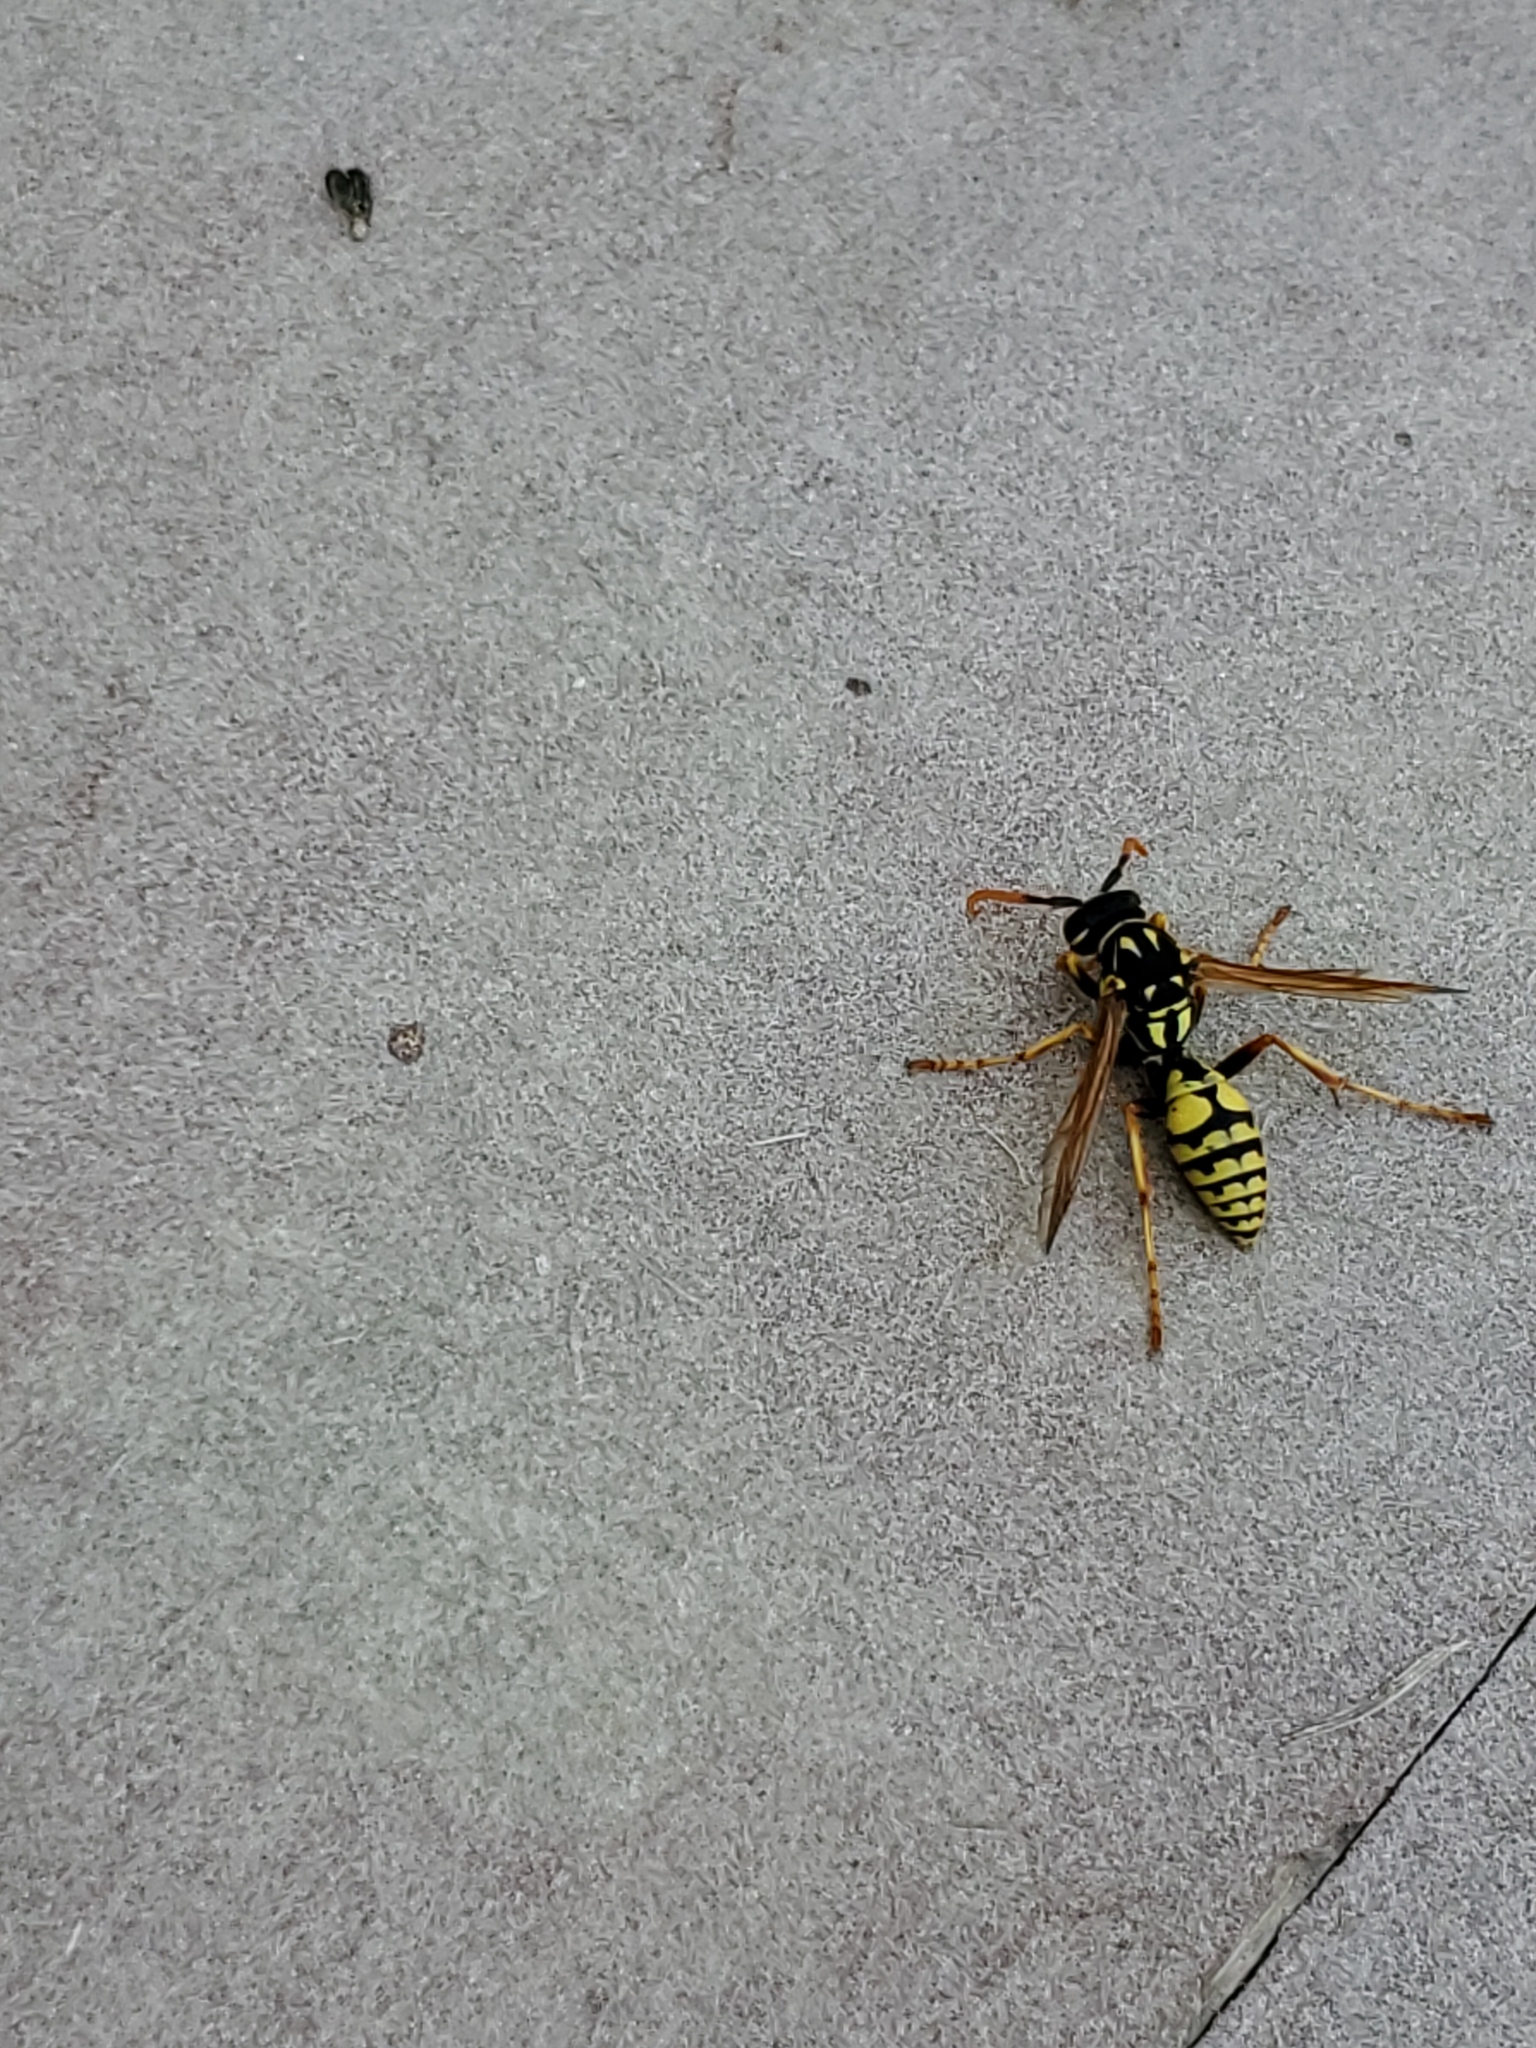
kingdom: Animalia
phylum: Arthropoda
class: Insecta
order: Hymenoptera
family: Eumenidae
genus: Polistes
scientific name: Polistes dominula
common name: Paper wasp
